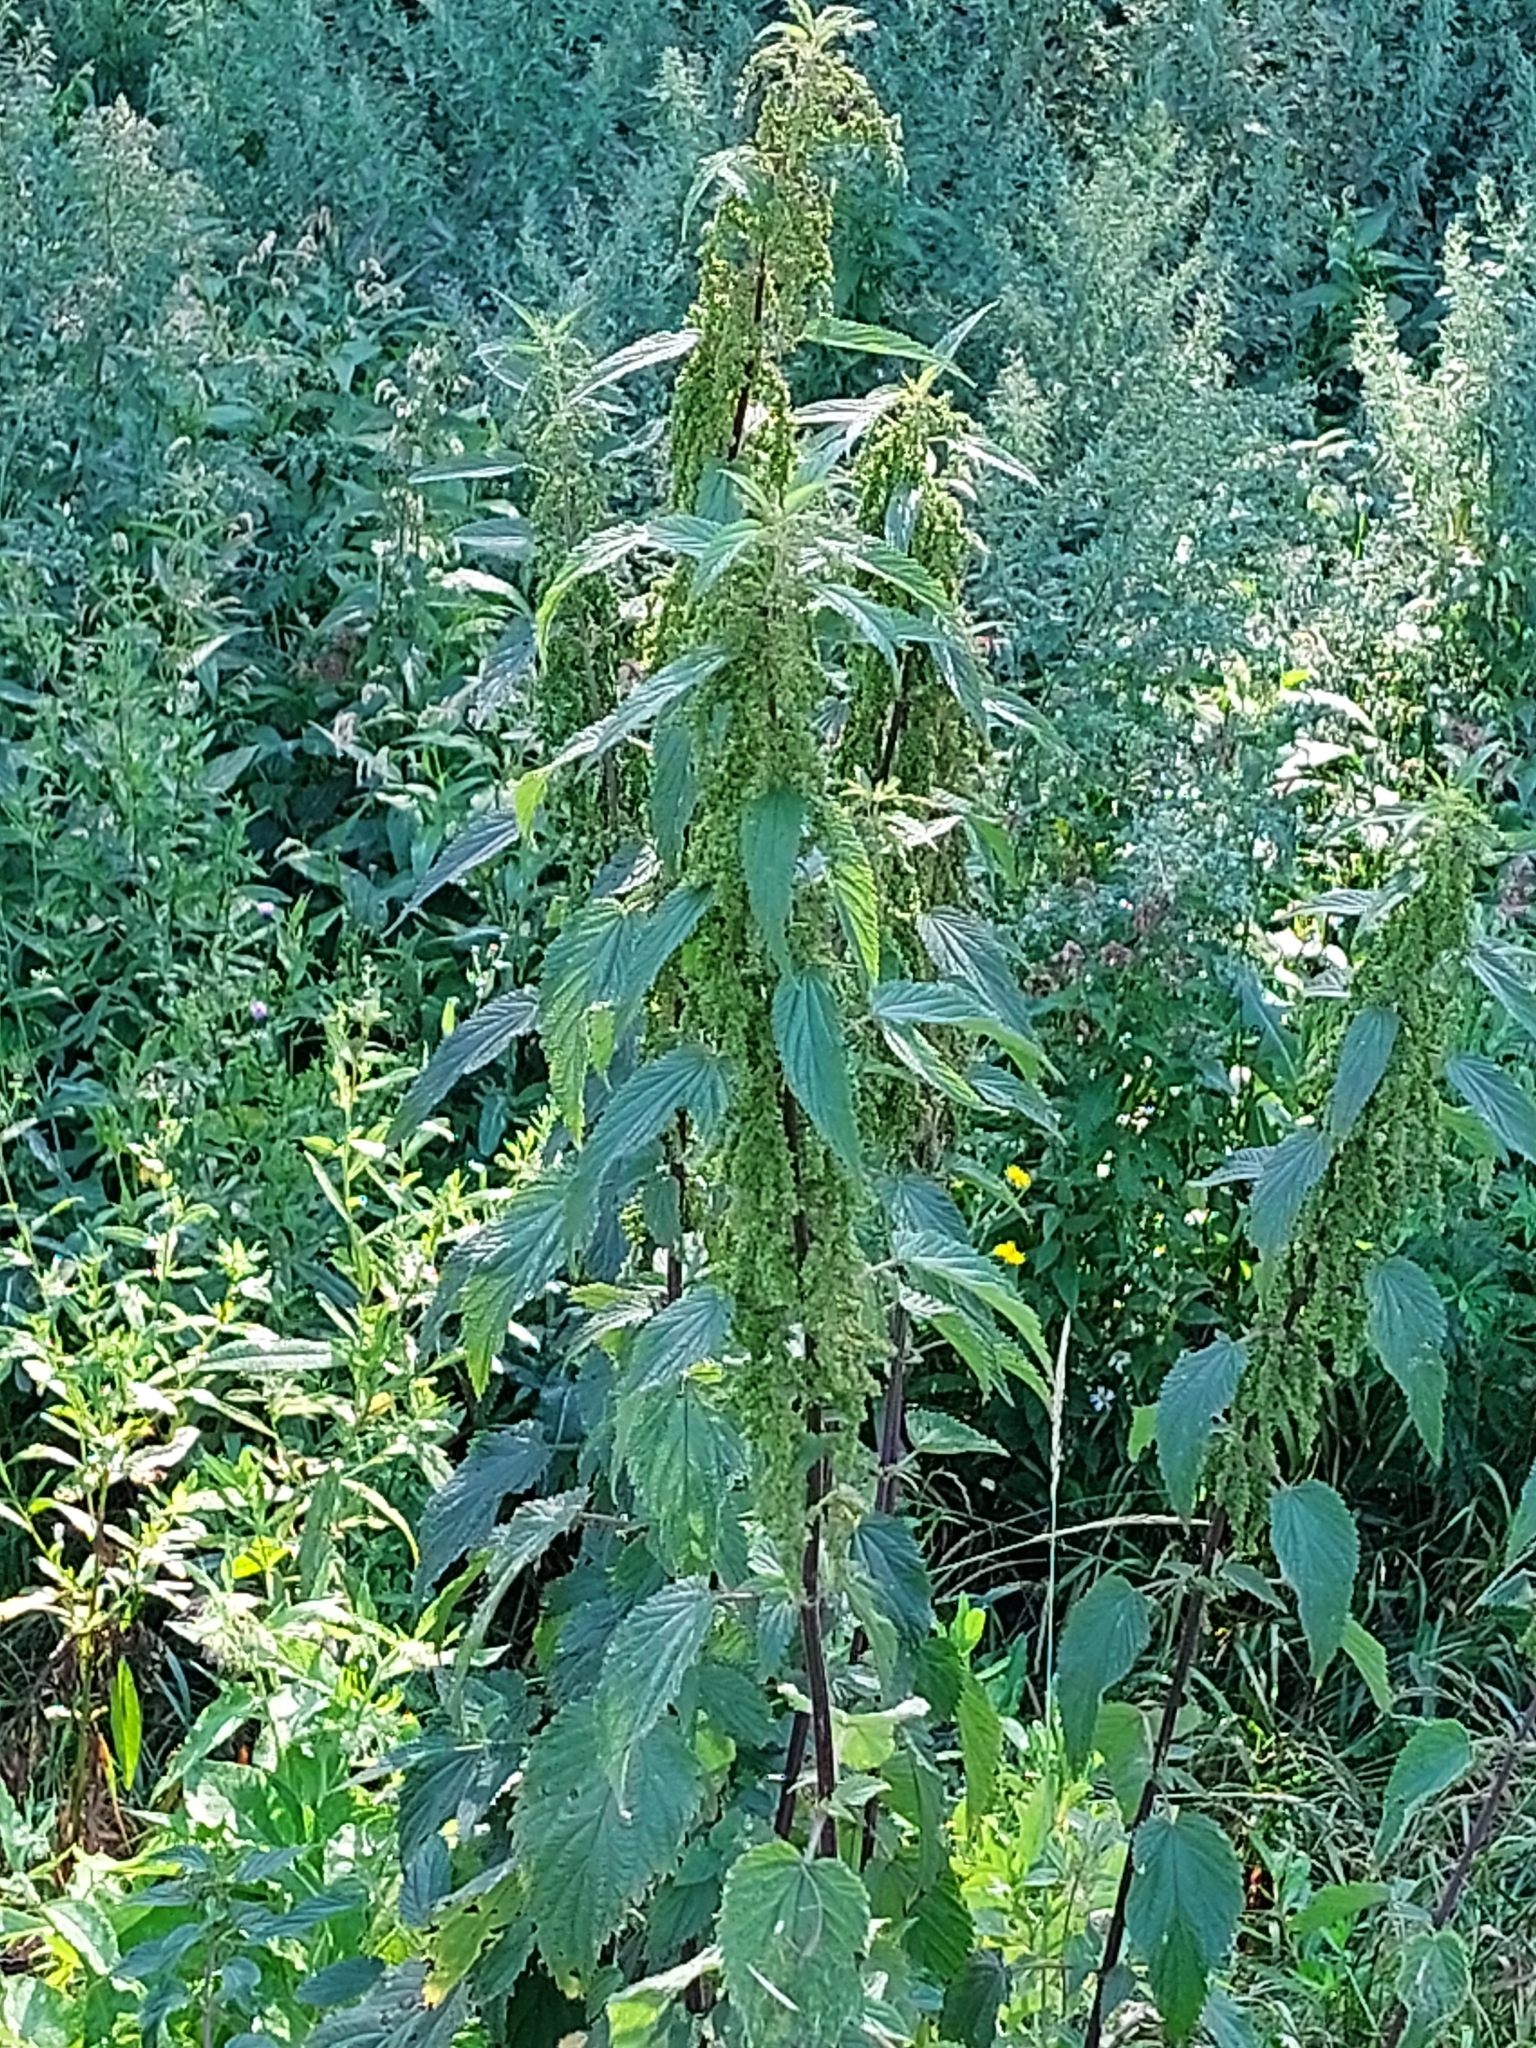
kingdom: Plantae
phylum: Tracheophyta
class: Magnoliopsida
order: Rosales
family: Urticaceae
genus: Urtica
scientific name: Urtica dioica
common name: Common nettle
